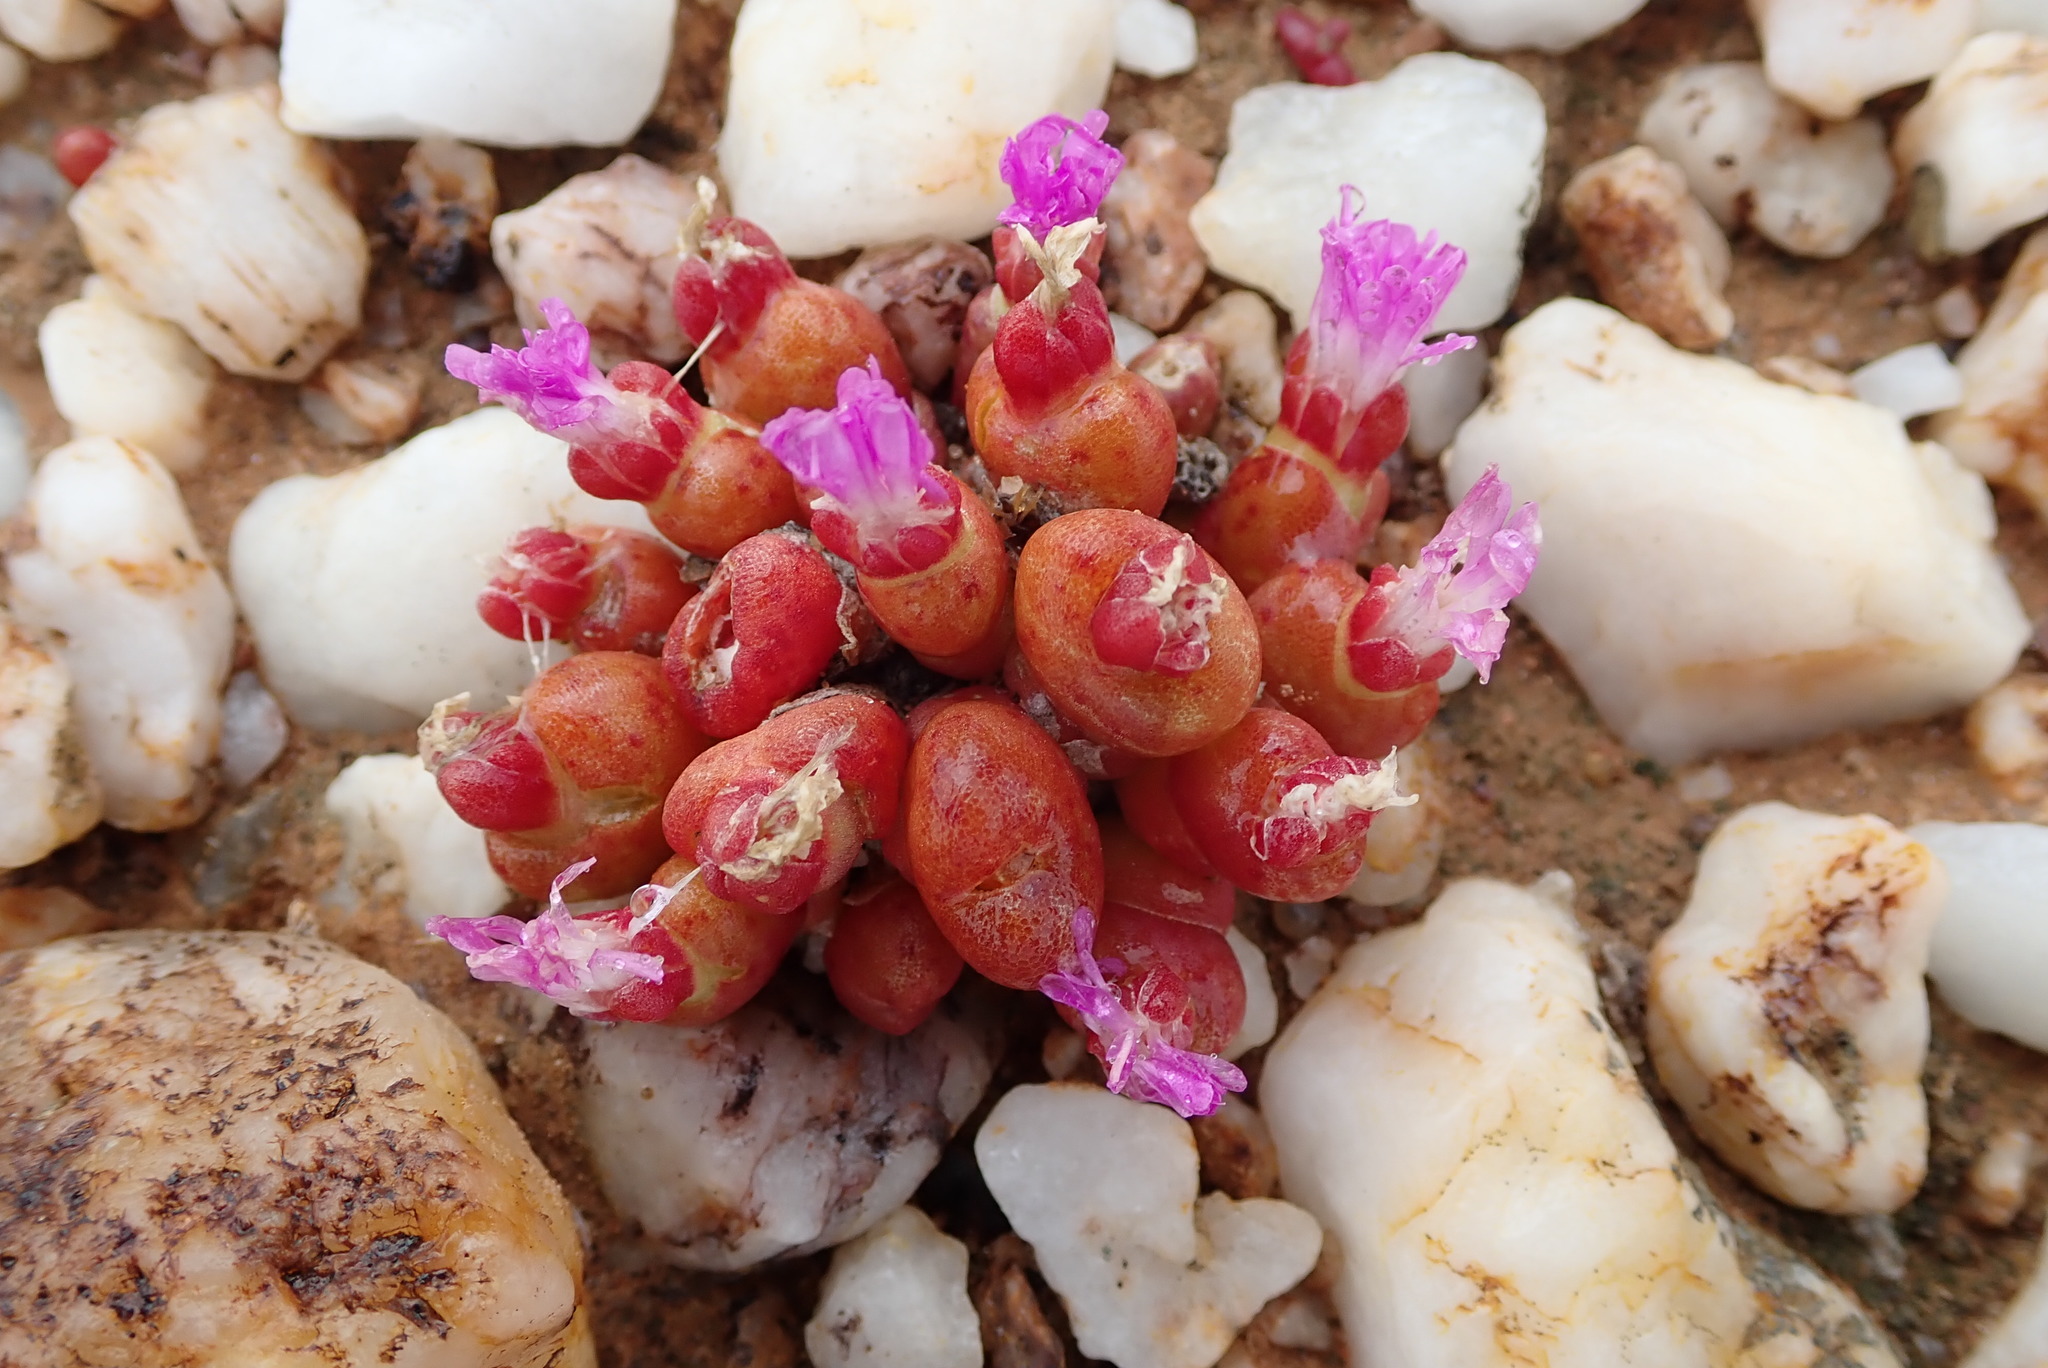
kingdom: Plantae
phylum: Tracheophyta
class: Magnoliopsida
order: Caryophyllales
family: Aizoaceae
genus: Oophytum
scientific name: Oophytum nanum
